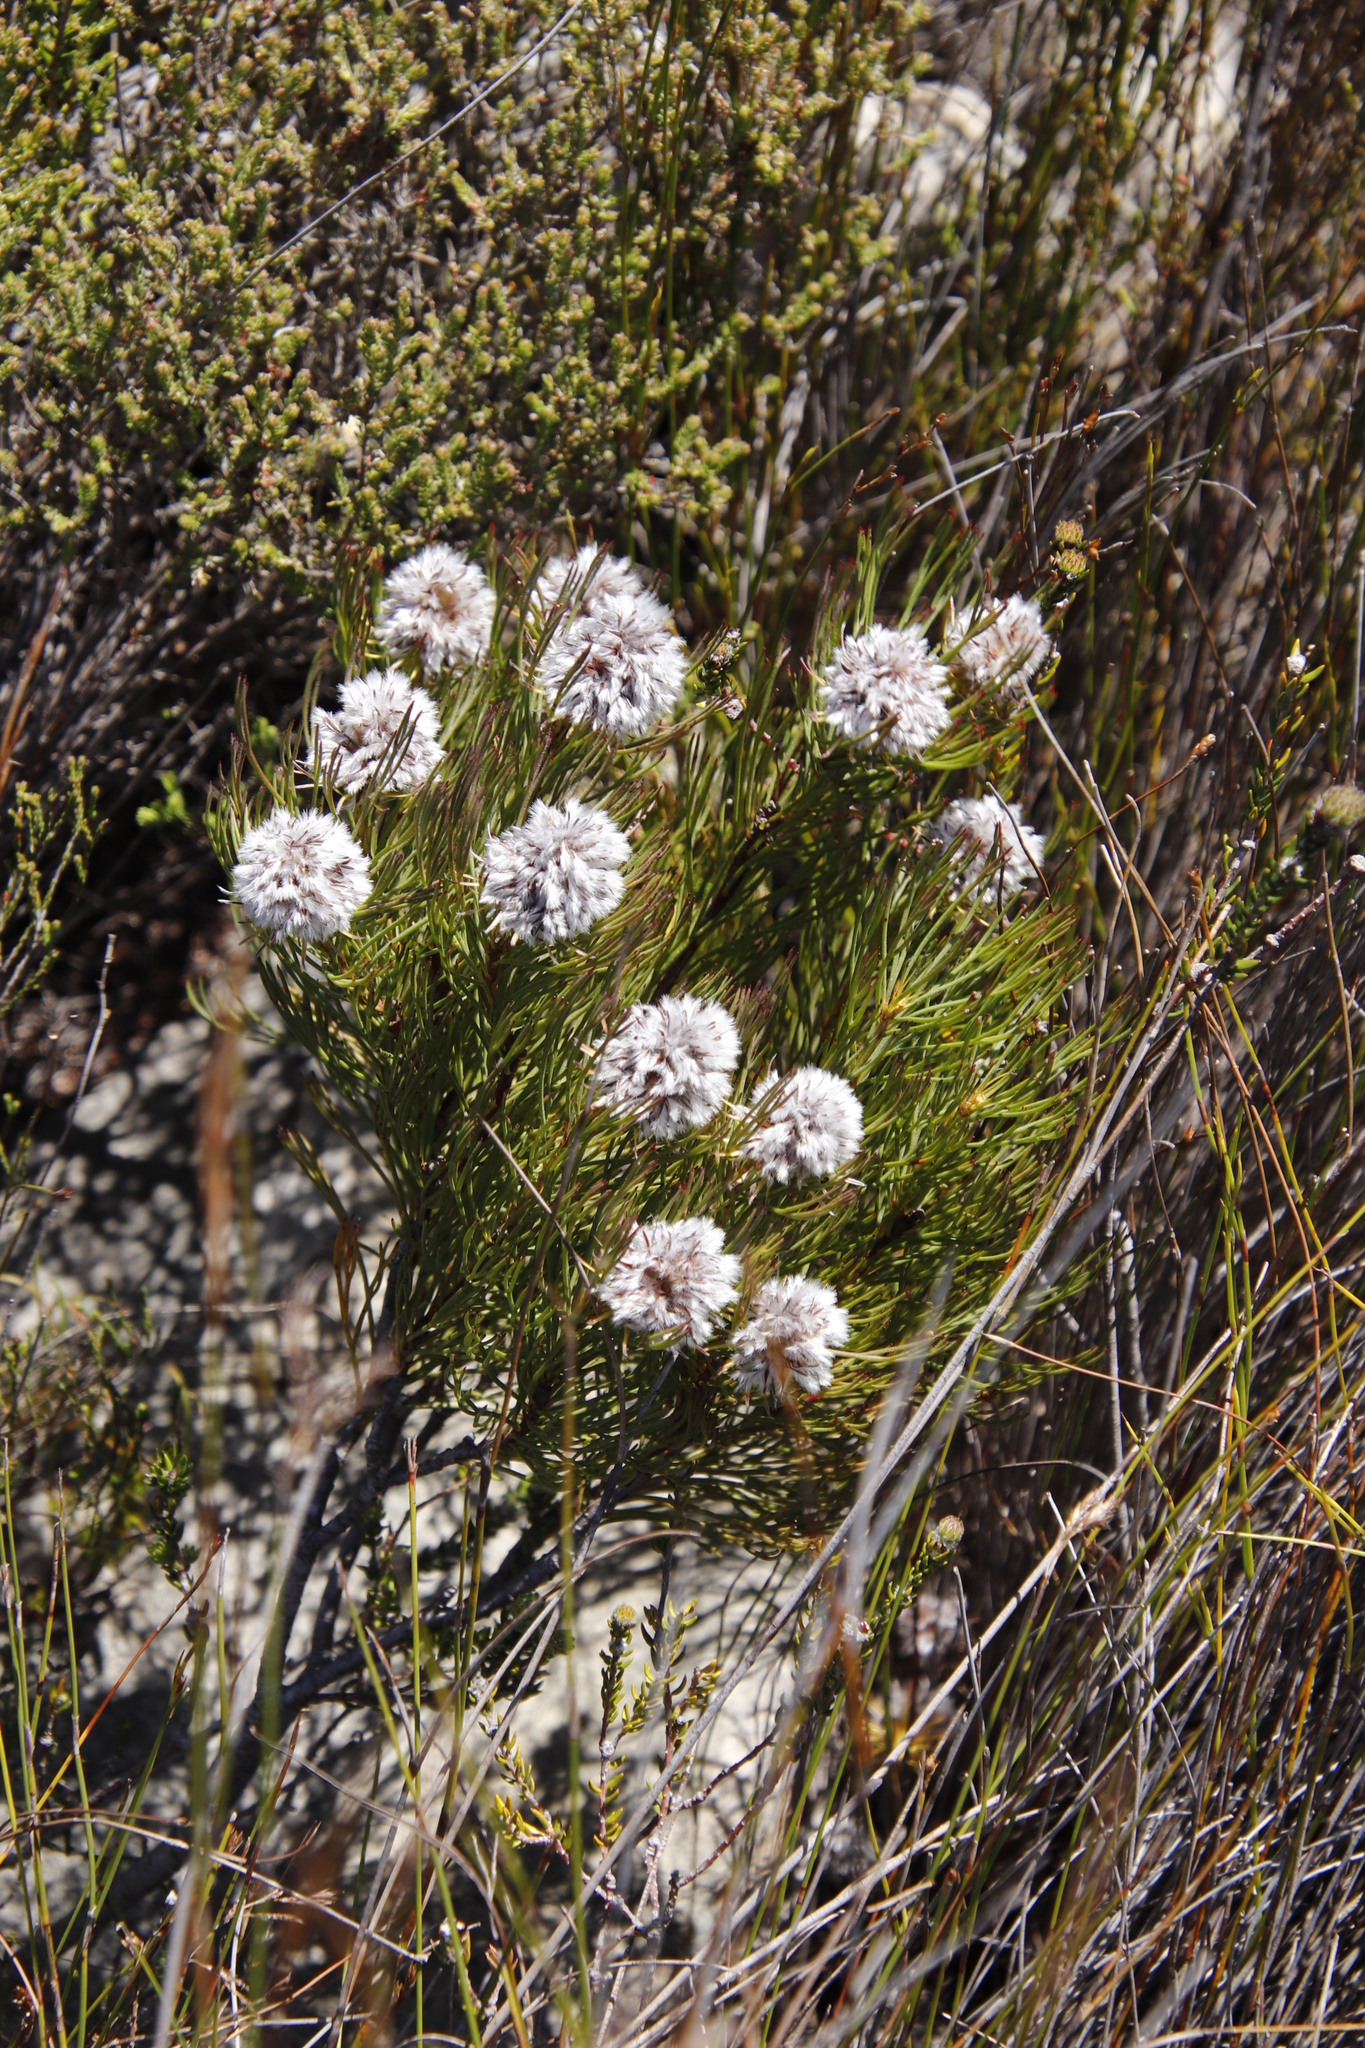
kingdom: Plantae
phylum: Tracheophyta
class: Magnoliopsida
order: Proteales
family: Proteaceae
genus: Serruria
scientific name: Serruria phylicoides
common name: Bearded spiderhead
